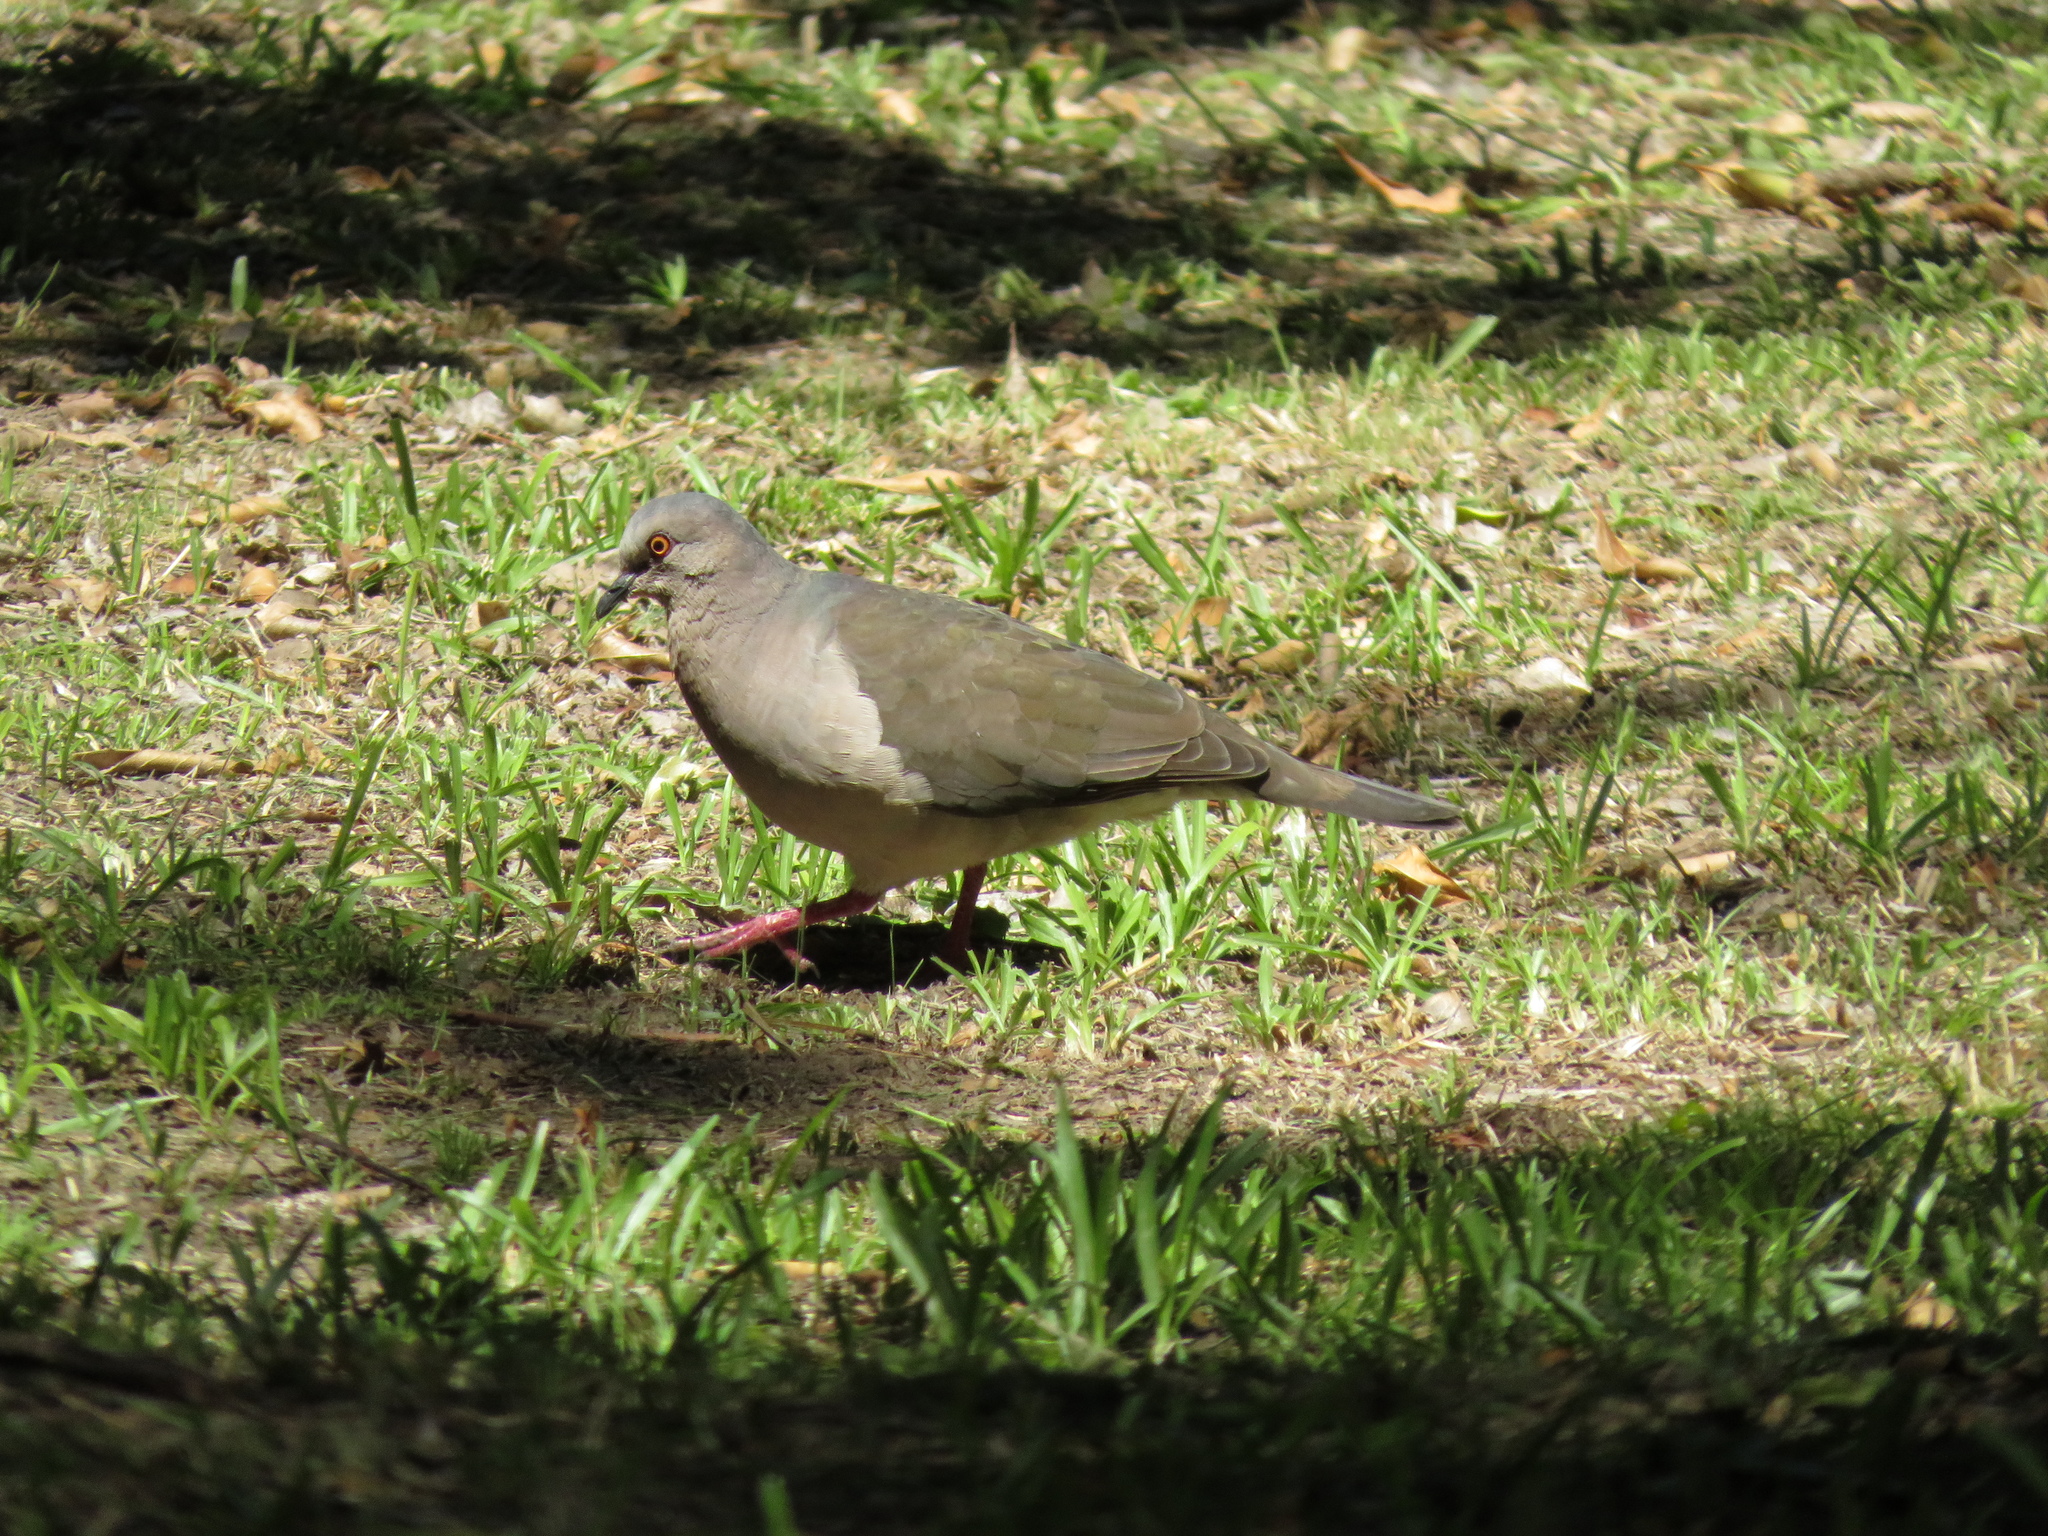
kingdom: Animalia
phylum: Chordata
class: Aves
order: Columbiformes
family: Columbidae
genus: Leptotila
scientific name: Leptotila verreauxi
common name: White-tipped dove
